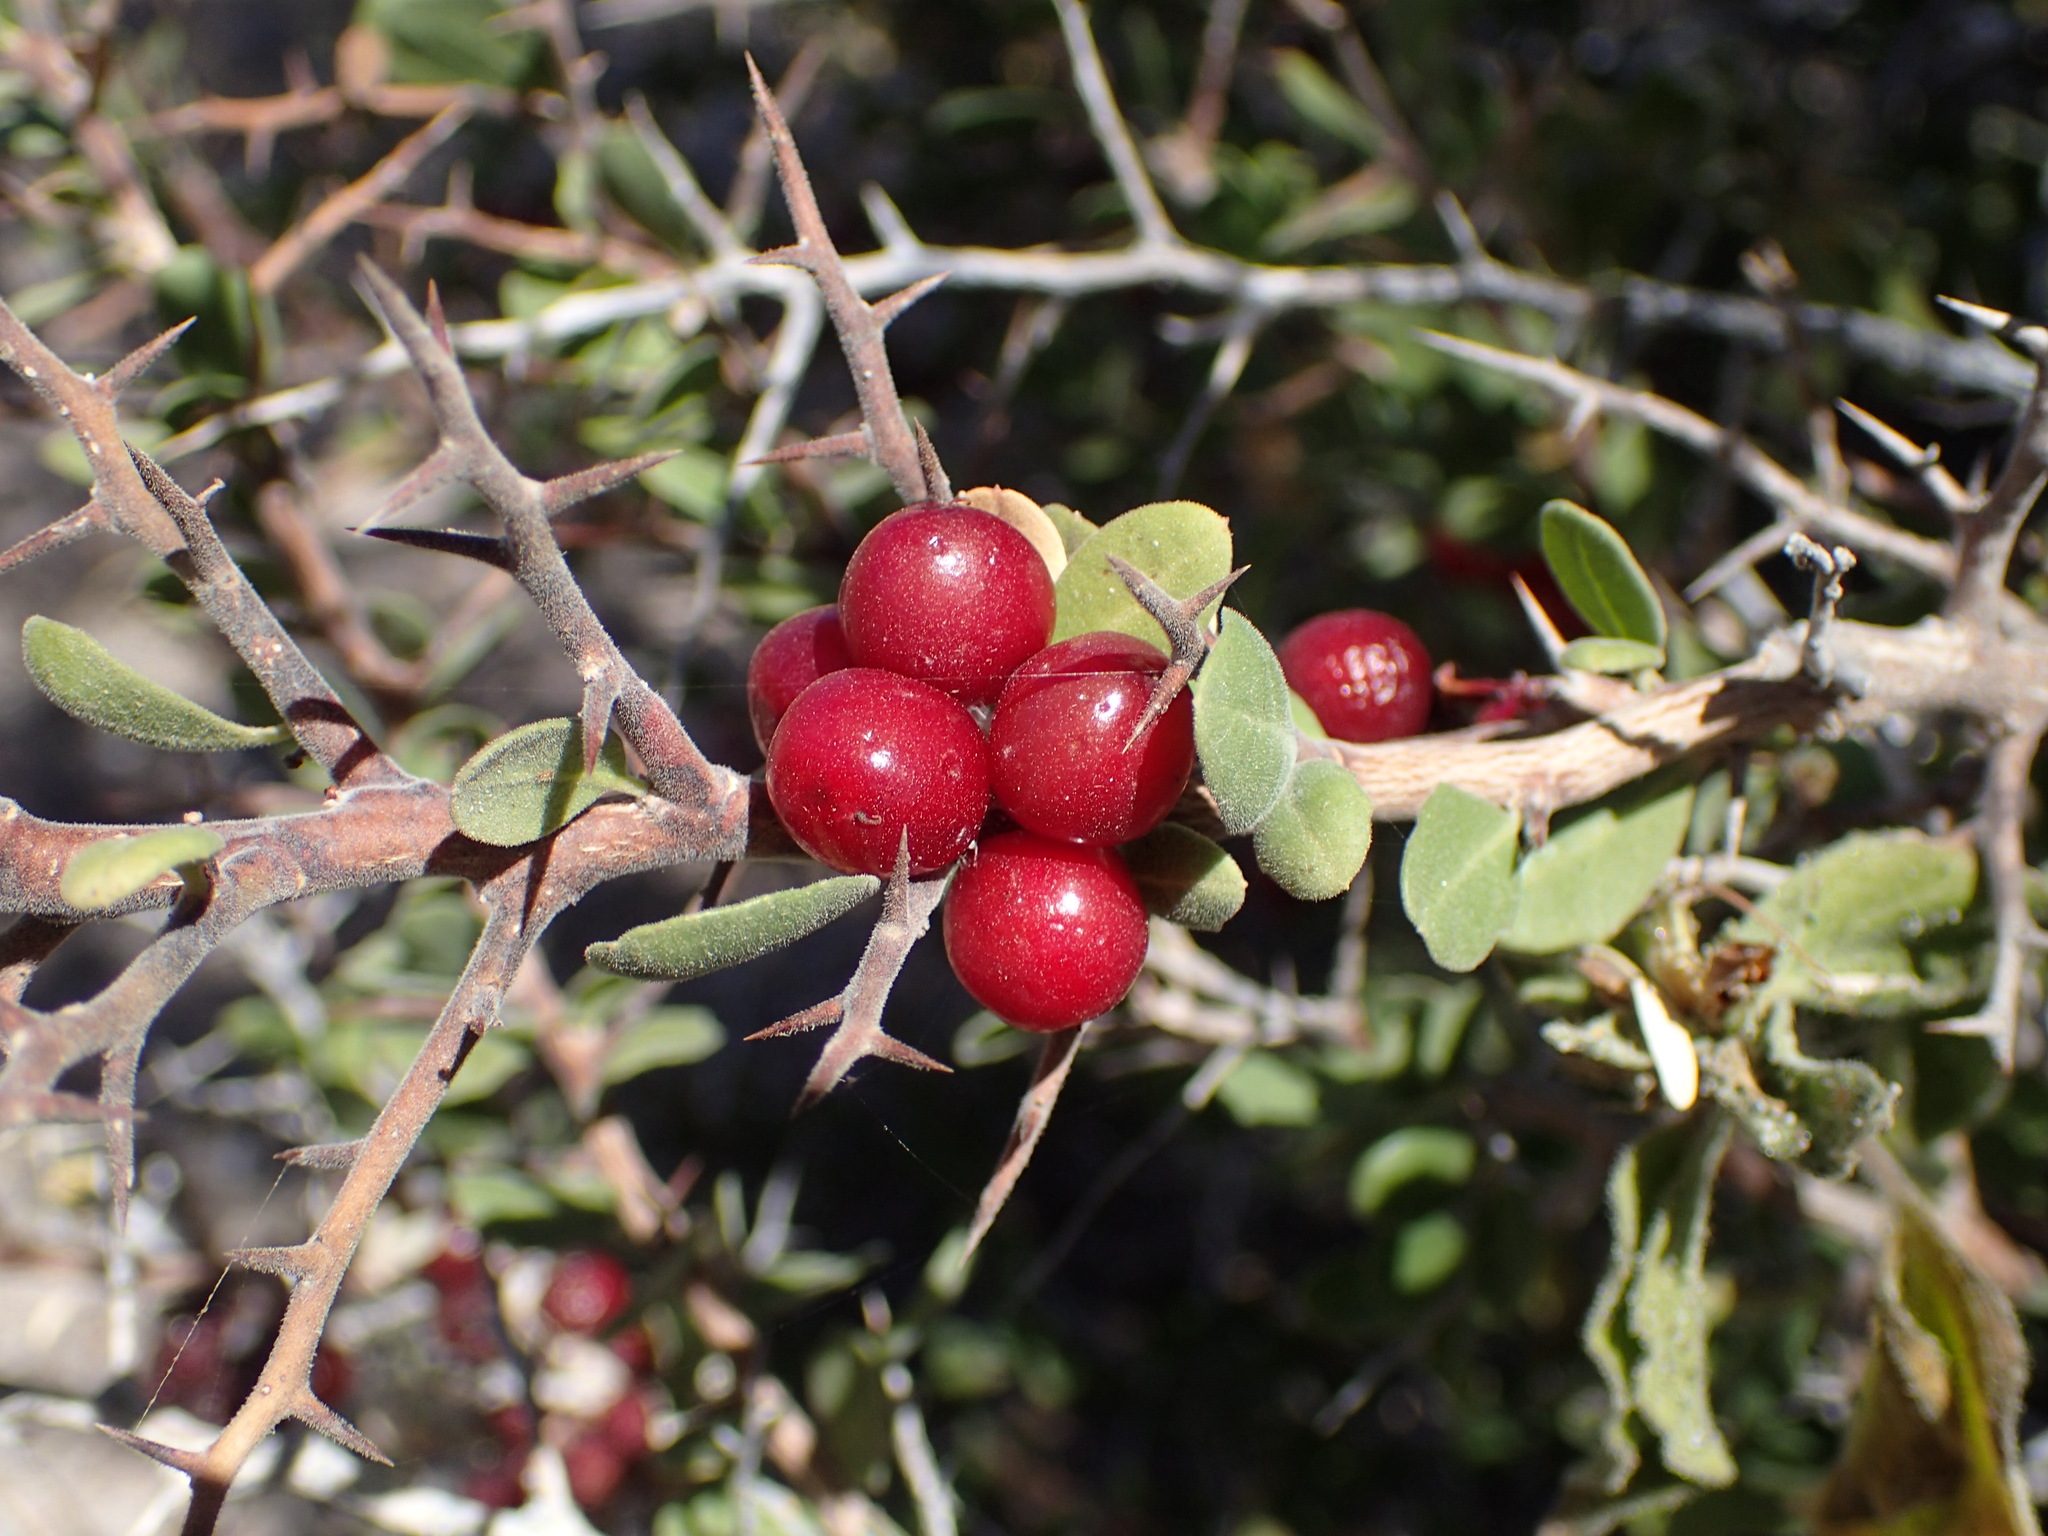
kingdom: Plantae
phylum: Tracheophyta
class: Magnoliopsida
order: Sapindales
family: Simaroubaceae
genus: Castela
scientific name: Castela peninsularis
